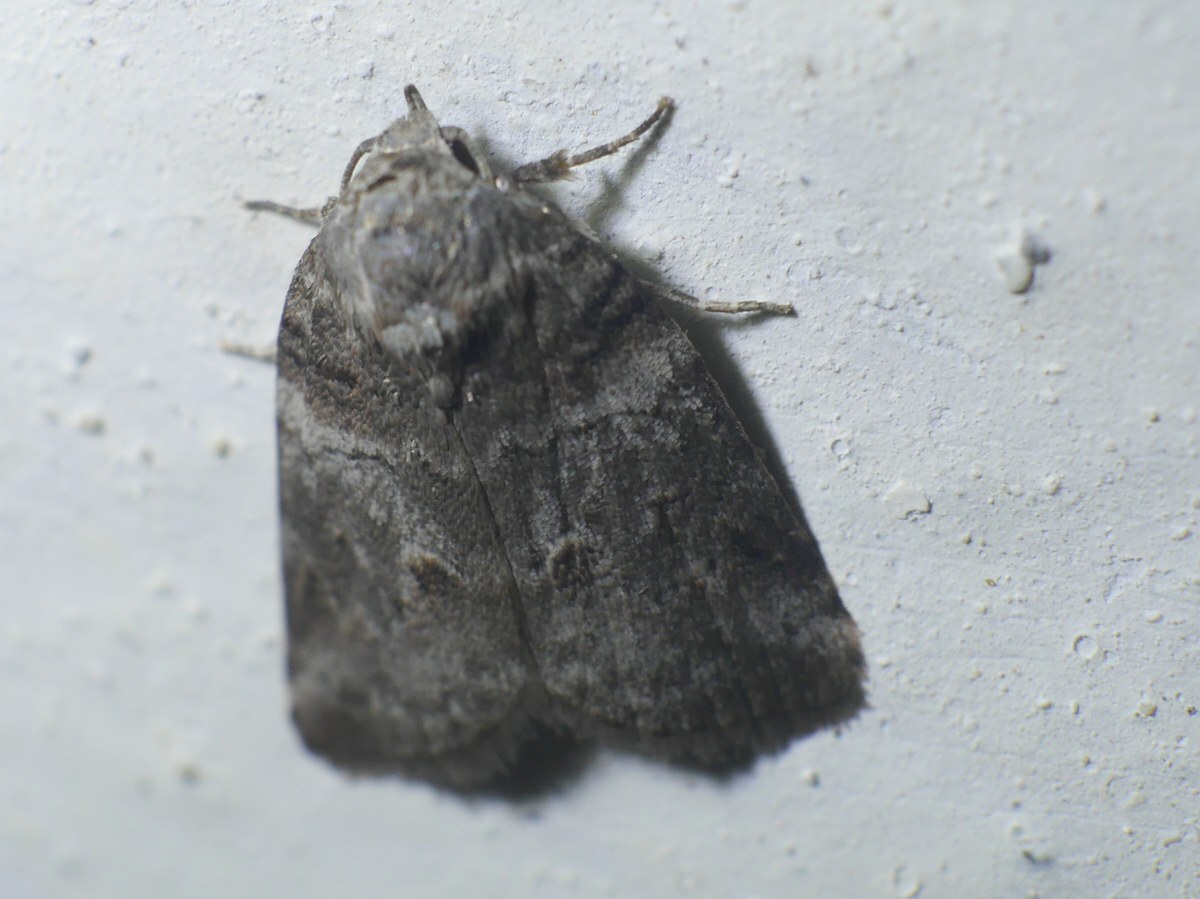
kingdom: Animalia
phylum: Arthropoda
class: Insecta
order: Lepidoptera
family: Nolidae
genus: Garella
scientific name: Garella musculana
